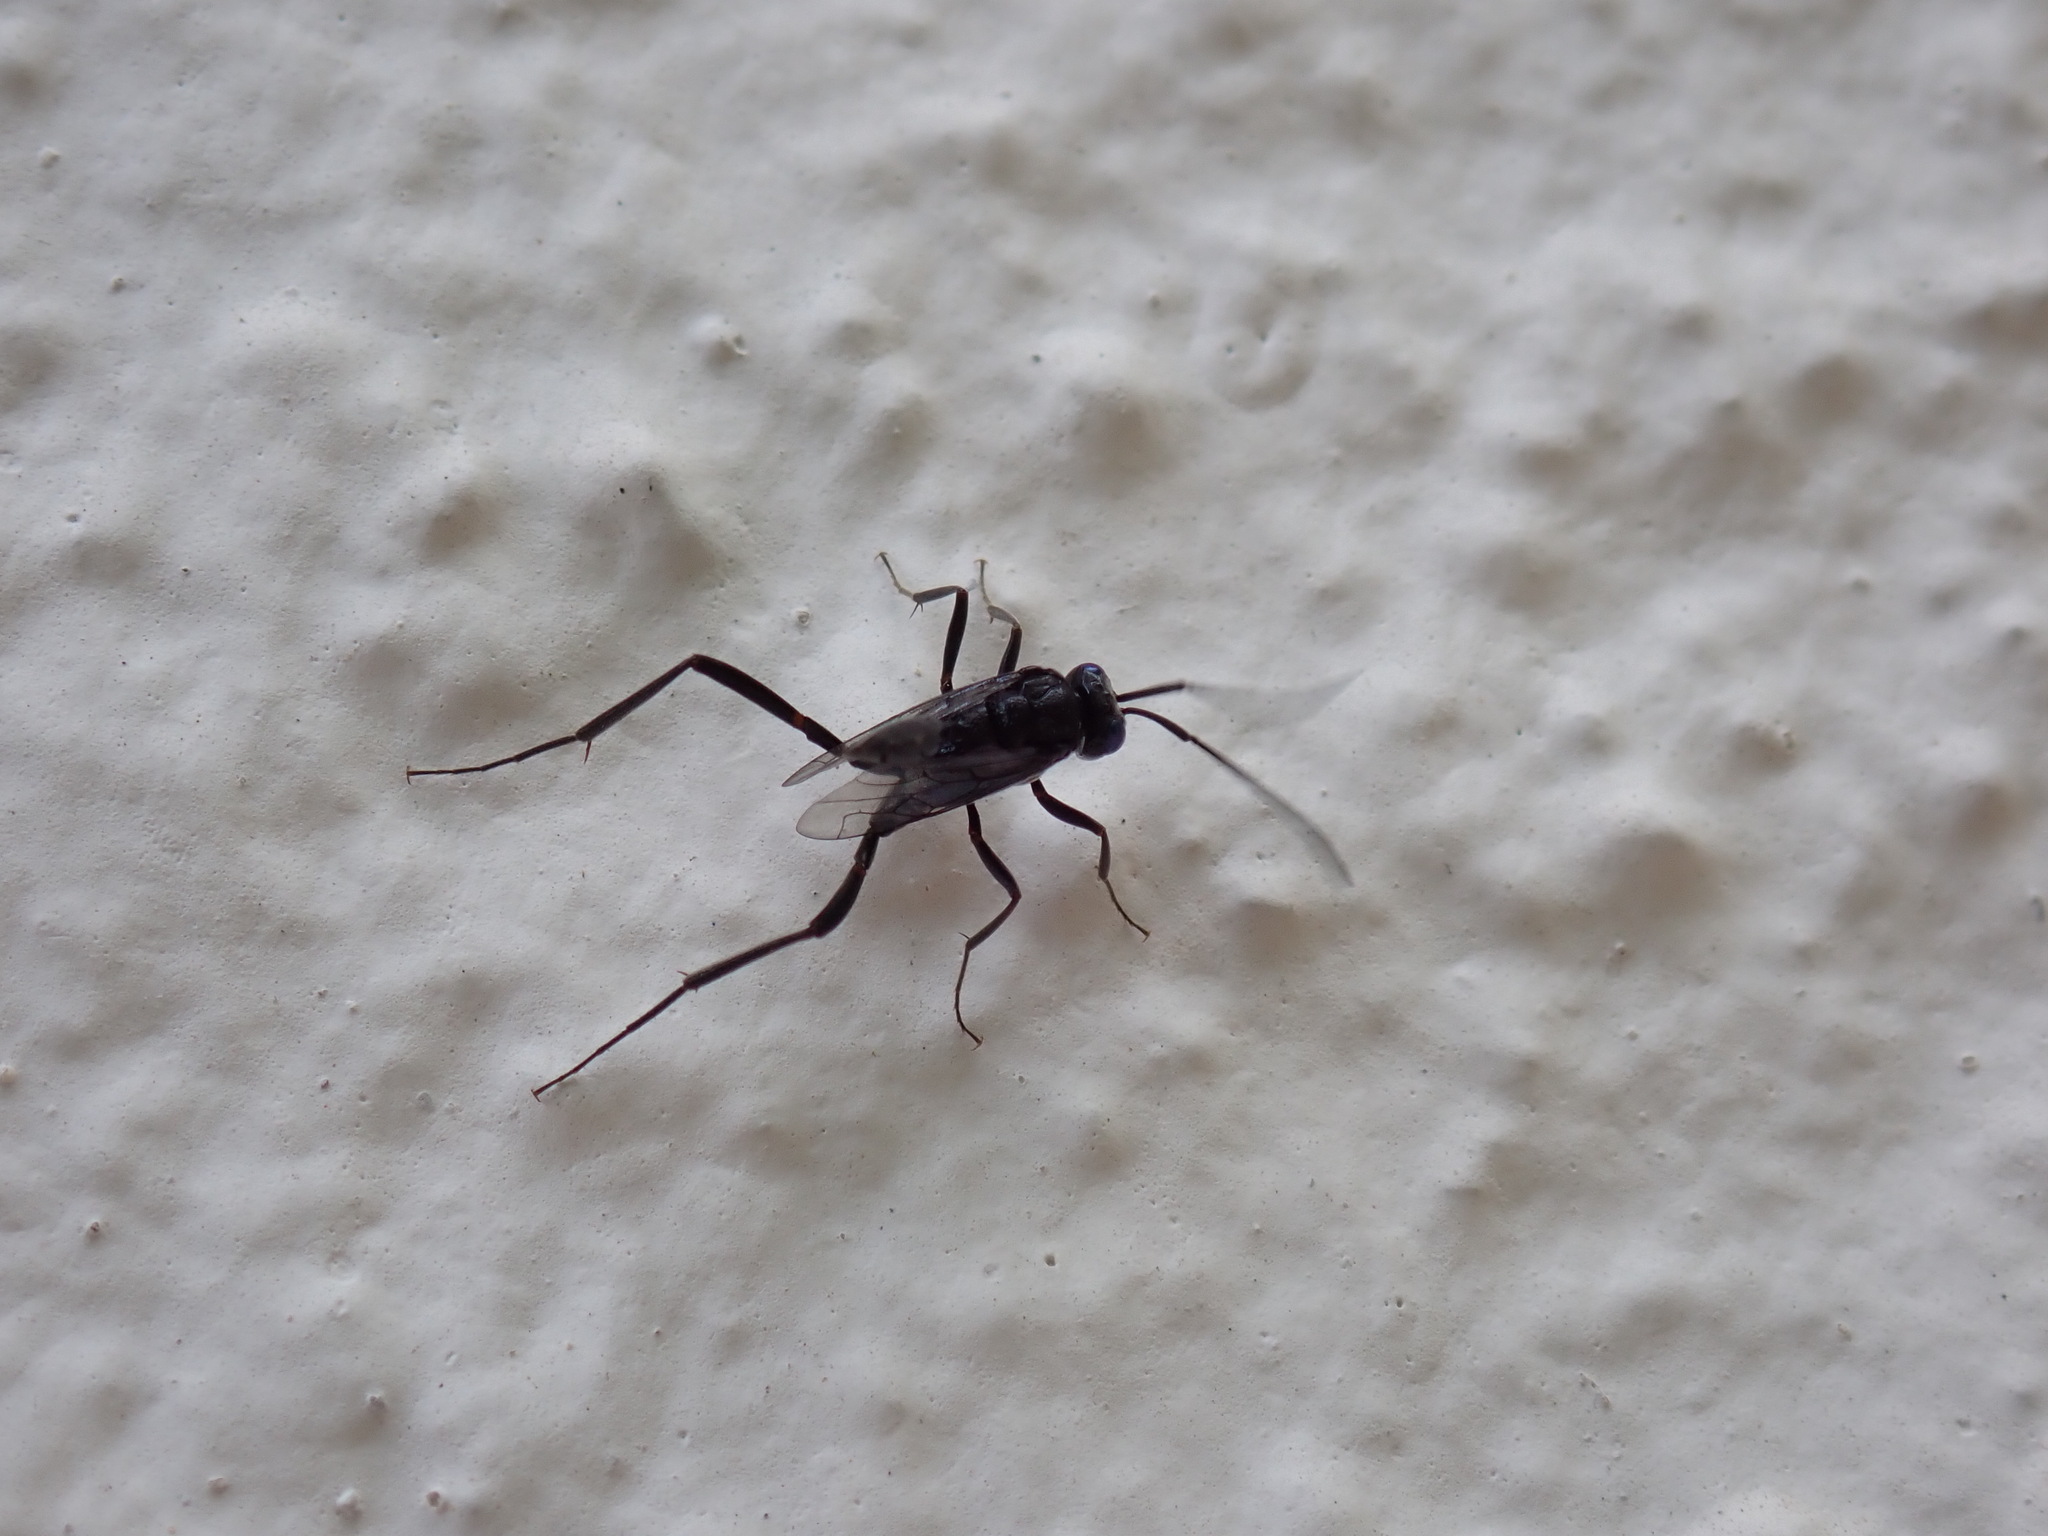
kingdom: Animalia
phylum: Arthropoda
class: Insecta
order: Hymenoptera
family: Evaniidae
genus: Evania
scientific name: Evania appendigaster
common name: Ensign wasp
